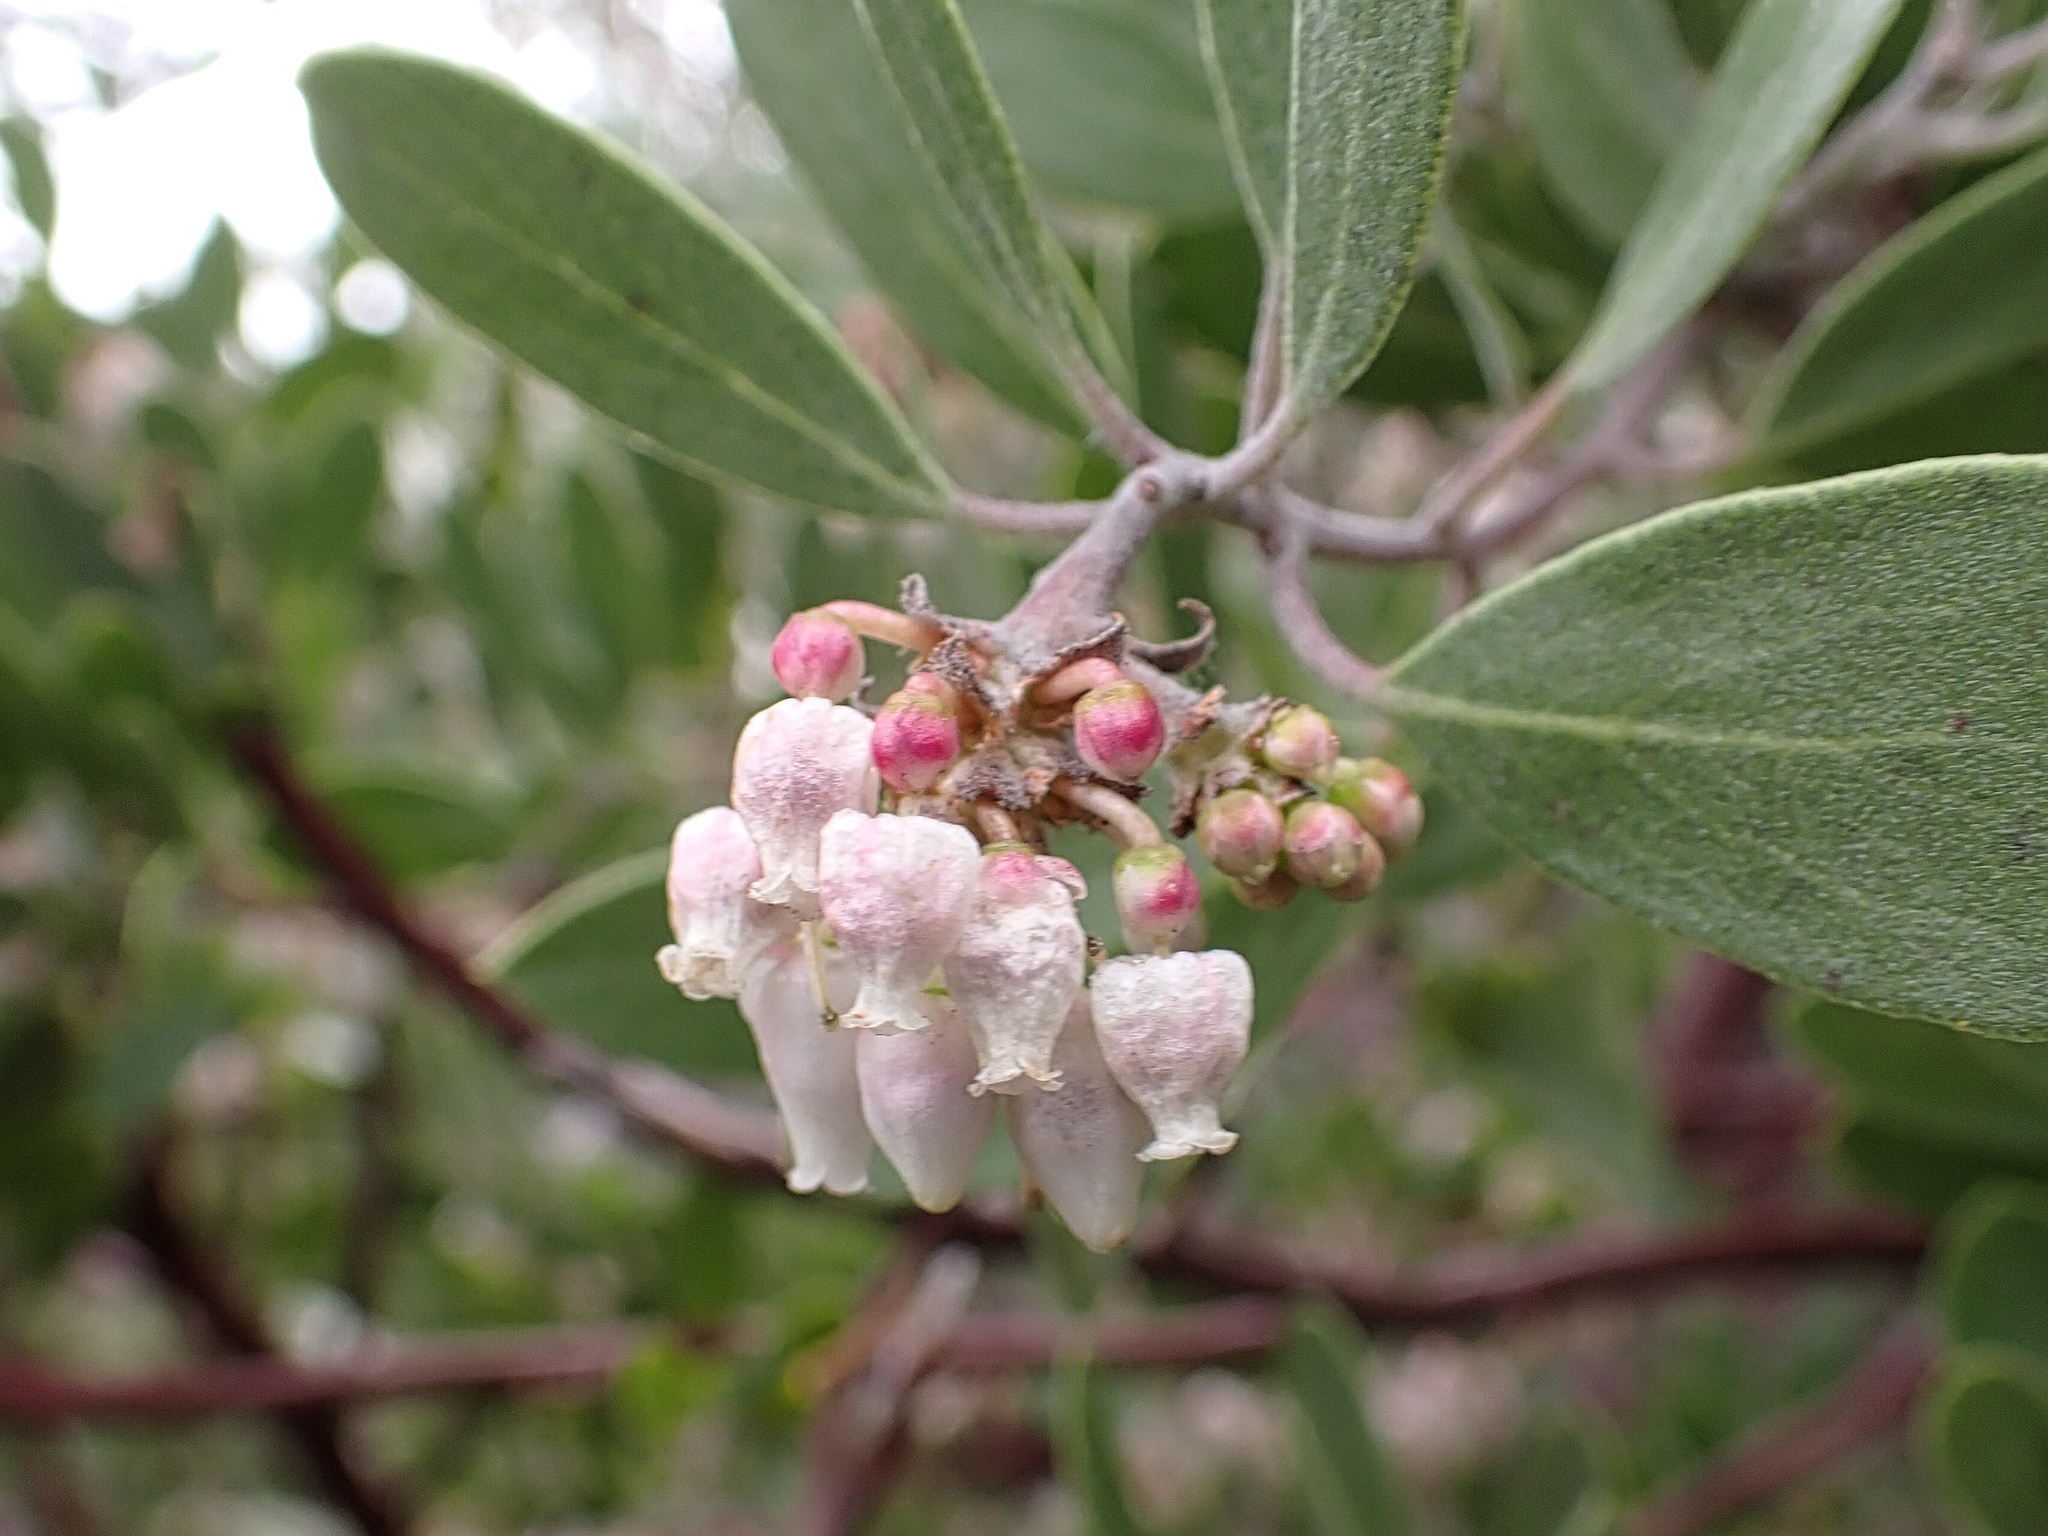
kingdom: Plantae
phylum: Tracheophyta
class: Magnoliopsida
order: Ericales
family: Ericaceae
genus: Arctostaphylos
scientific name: Arctostaphylos pungens
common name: Mexican manzanita
